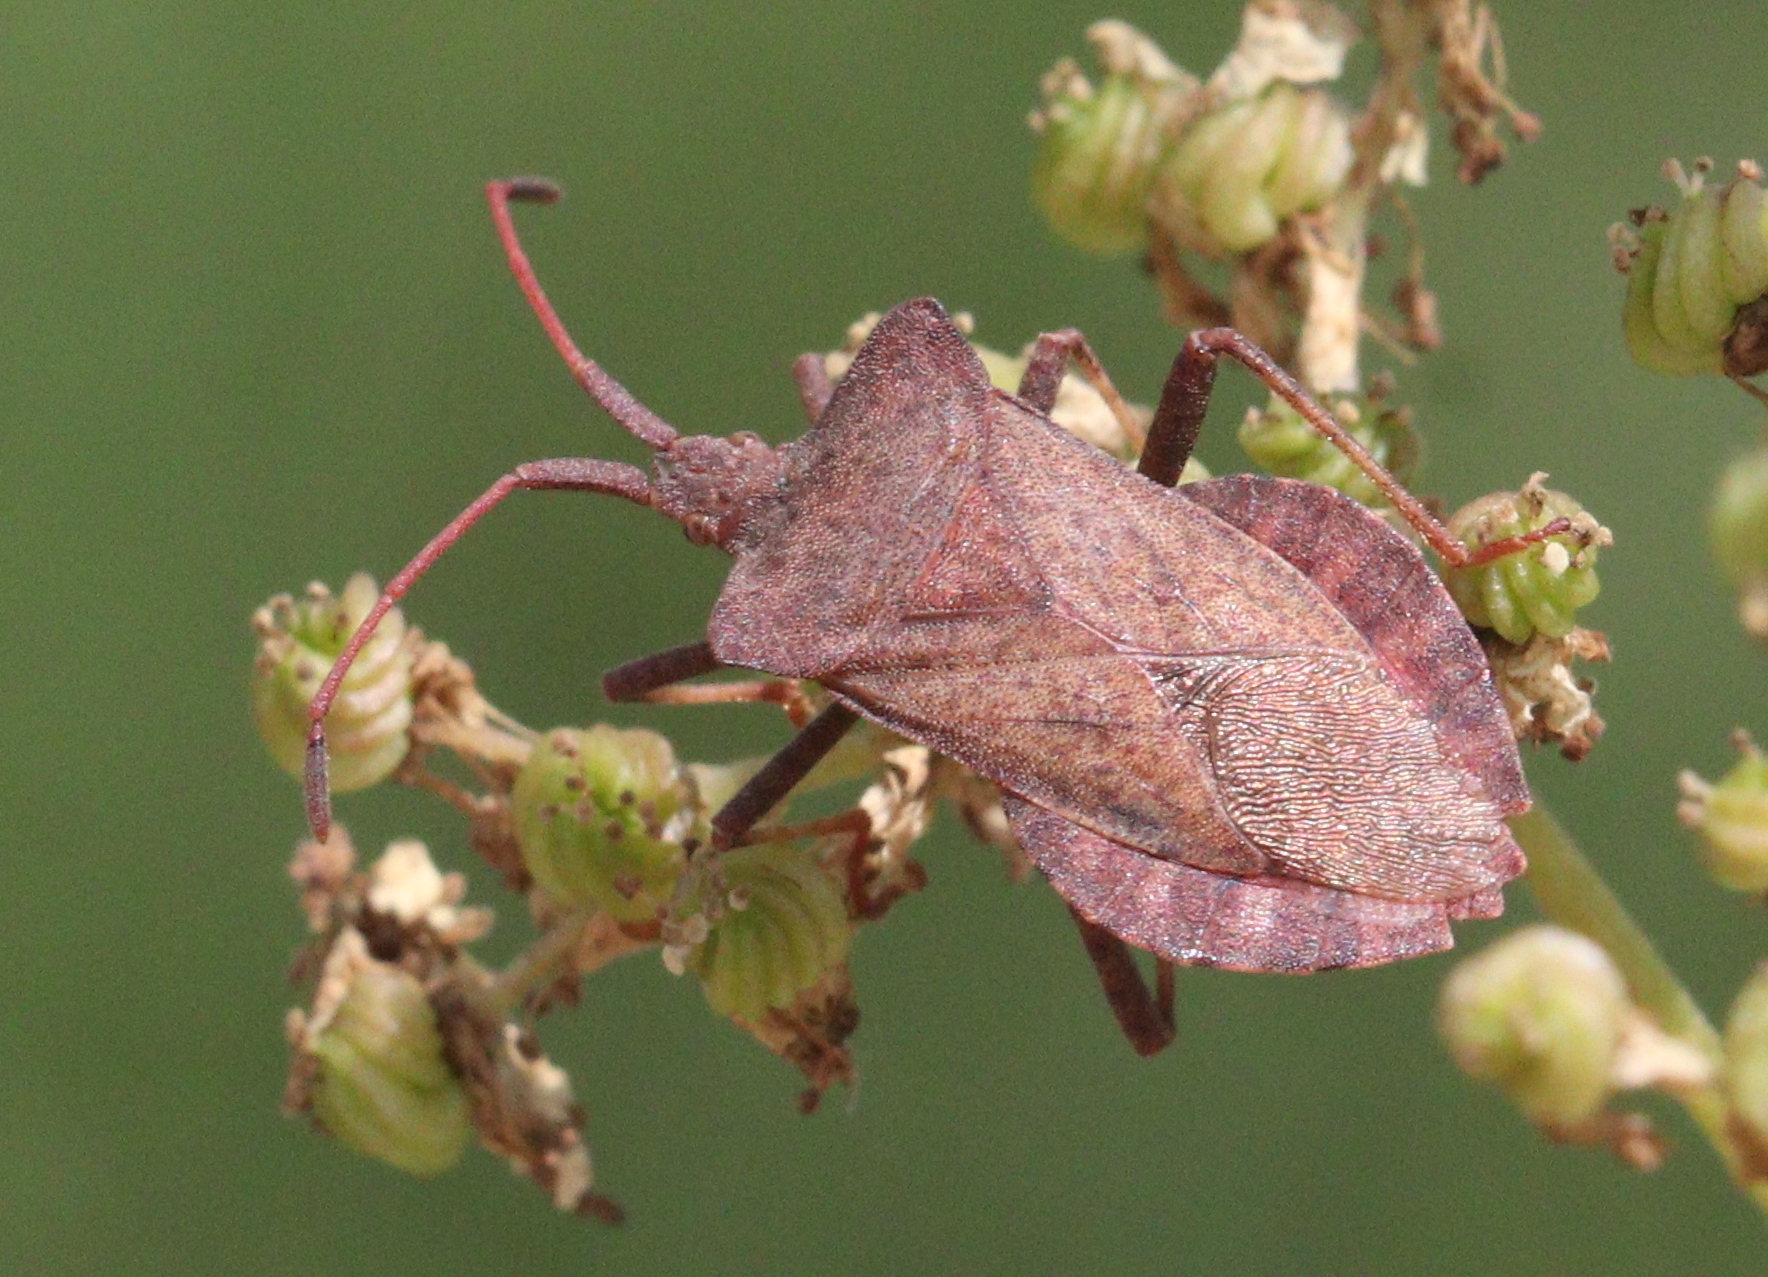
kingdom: Animalia
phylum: Arthropoda
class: Insecta
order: Hemiptera
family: Coreidae
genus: Coreus
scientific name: Coreus marginatus
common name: Dock bug
